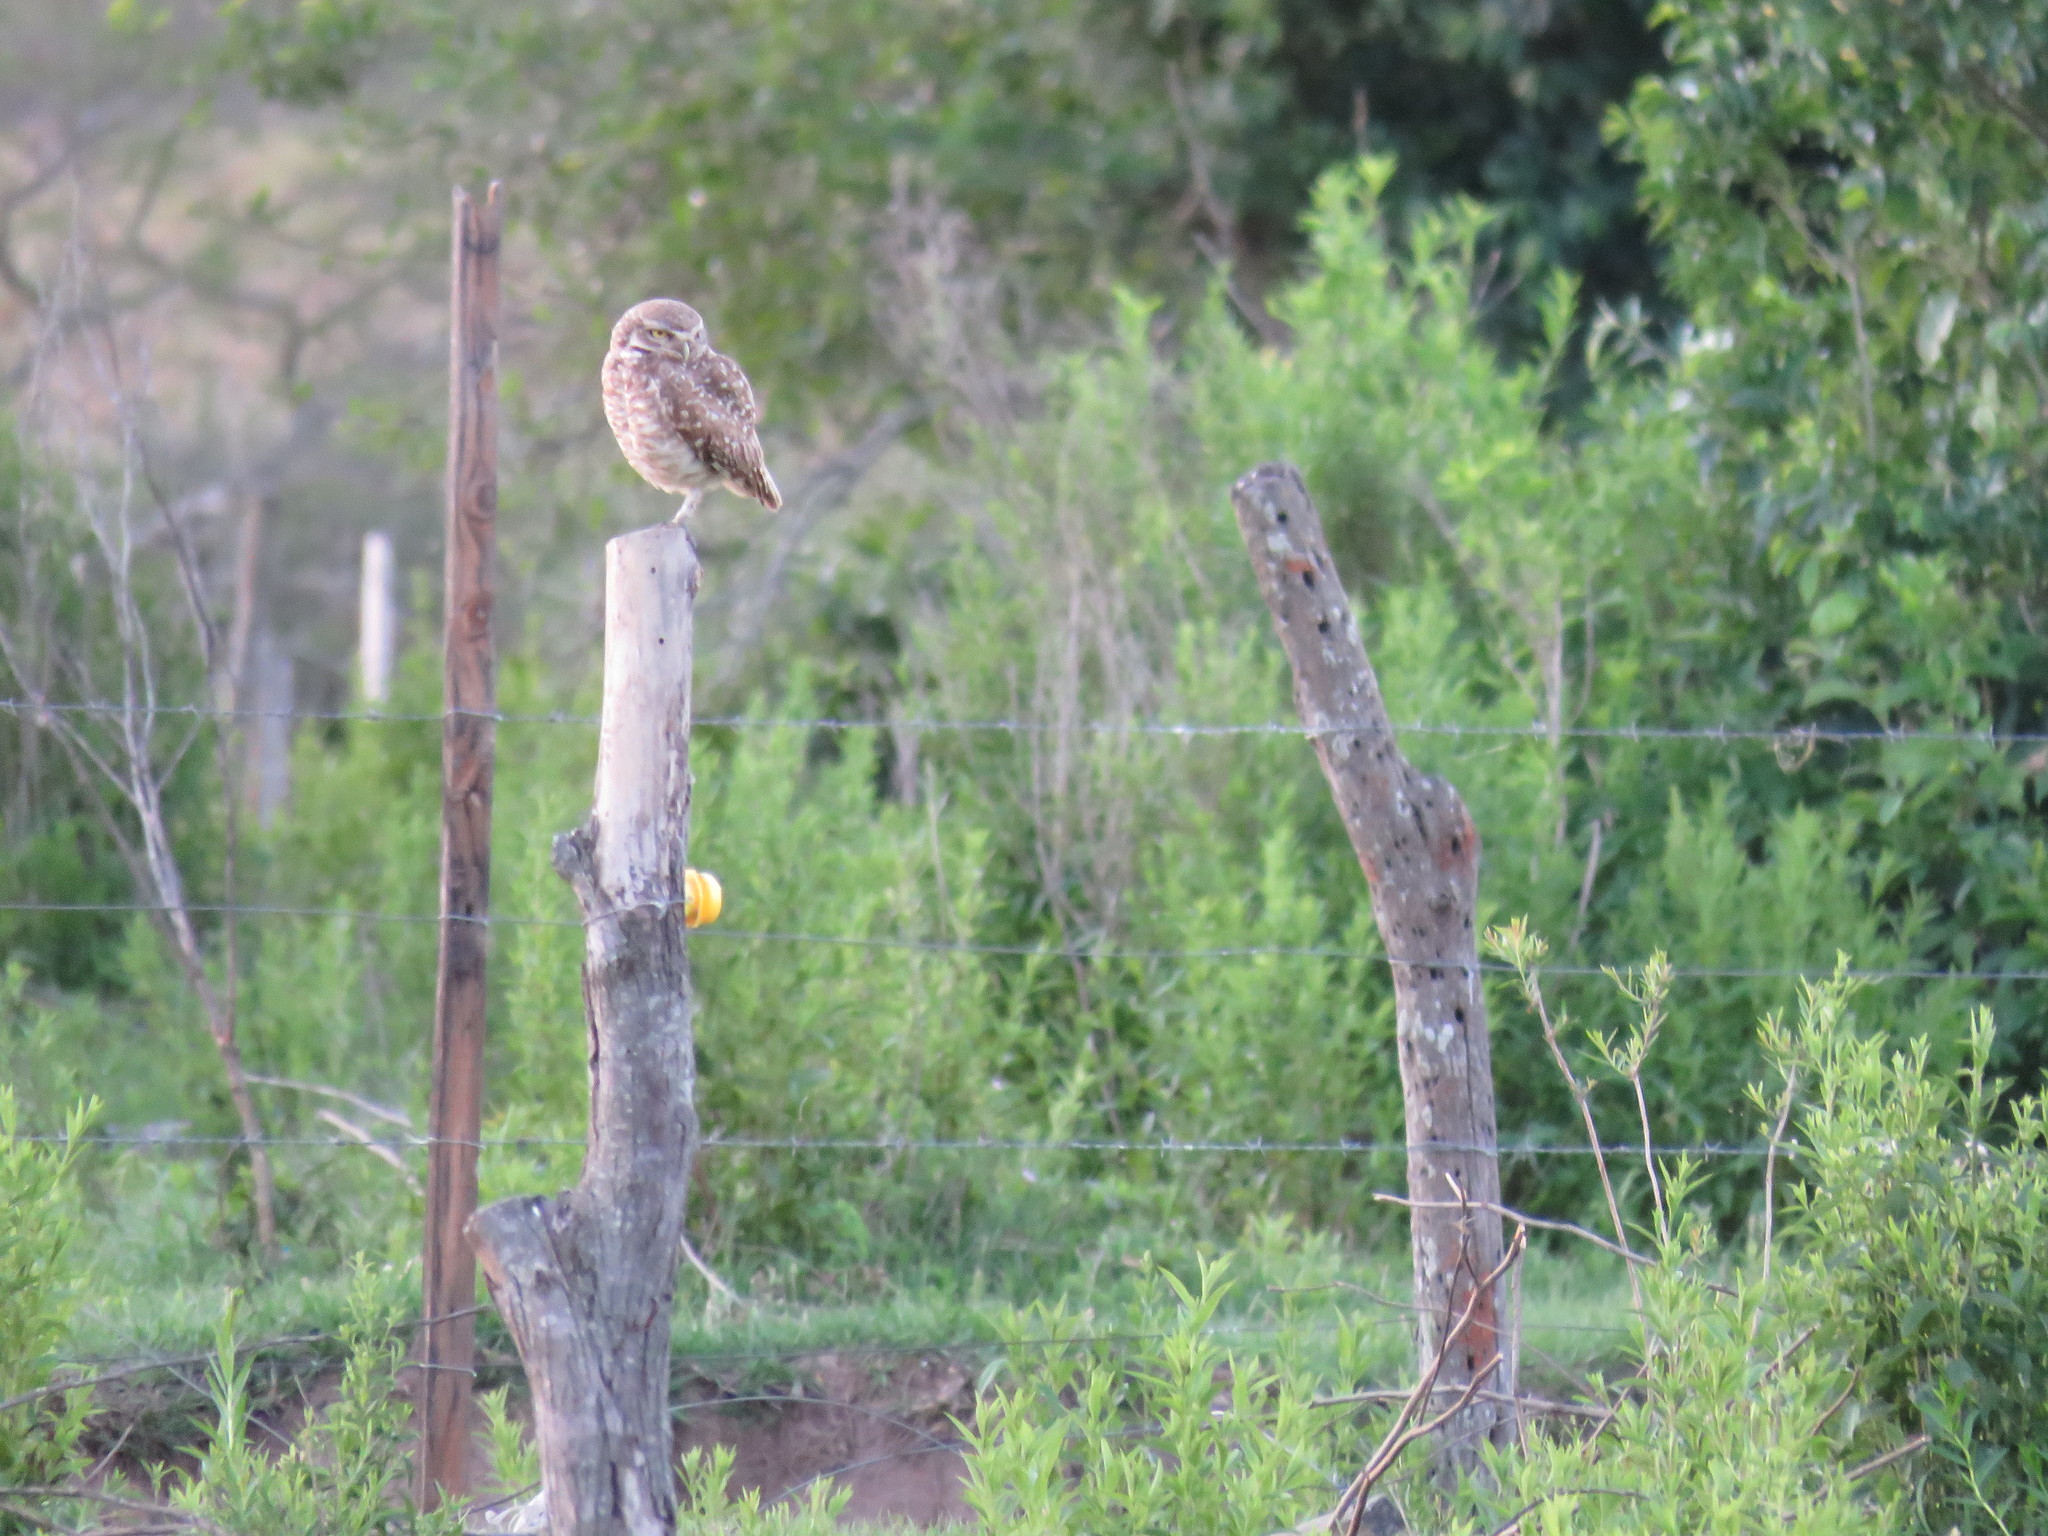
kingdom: Animalia
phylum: Chordata
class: Aves
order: Strigiformes
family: Strigidae
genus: Athene
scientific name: Athene cunicularia
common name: Burrowing owl
